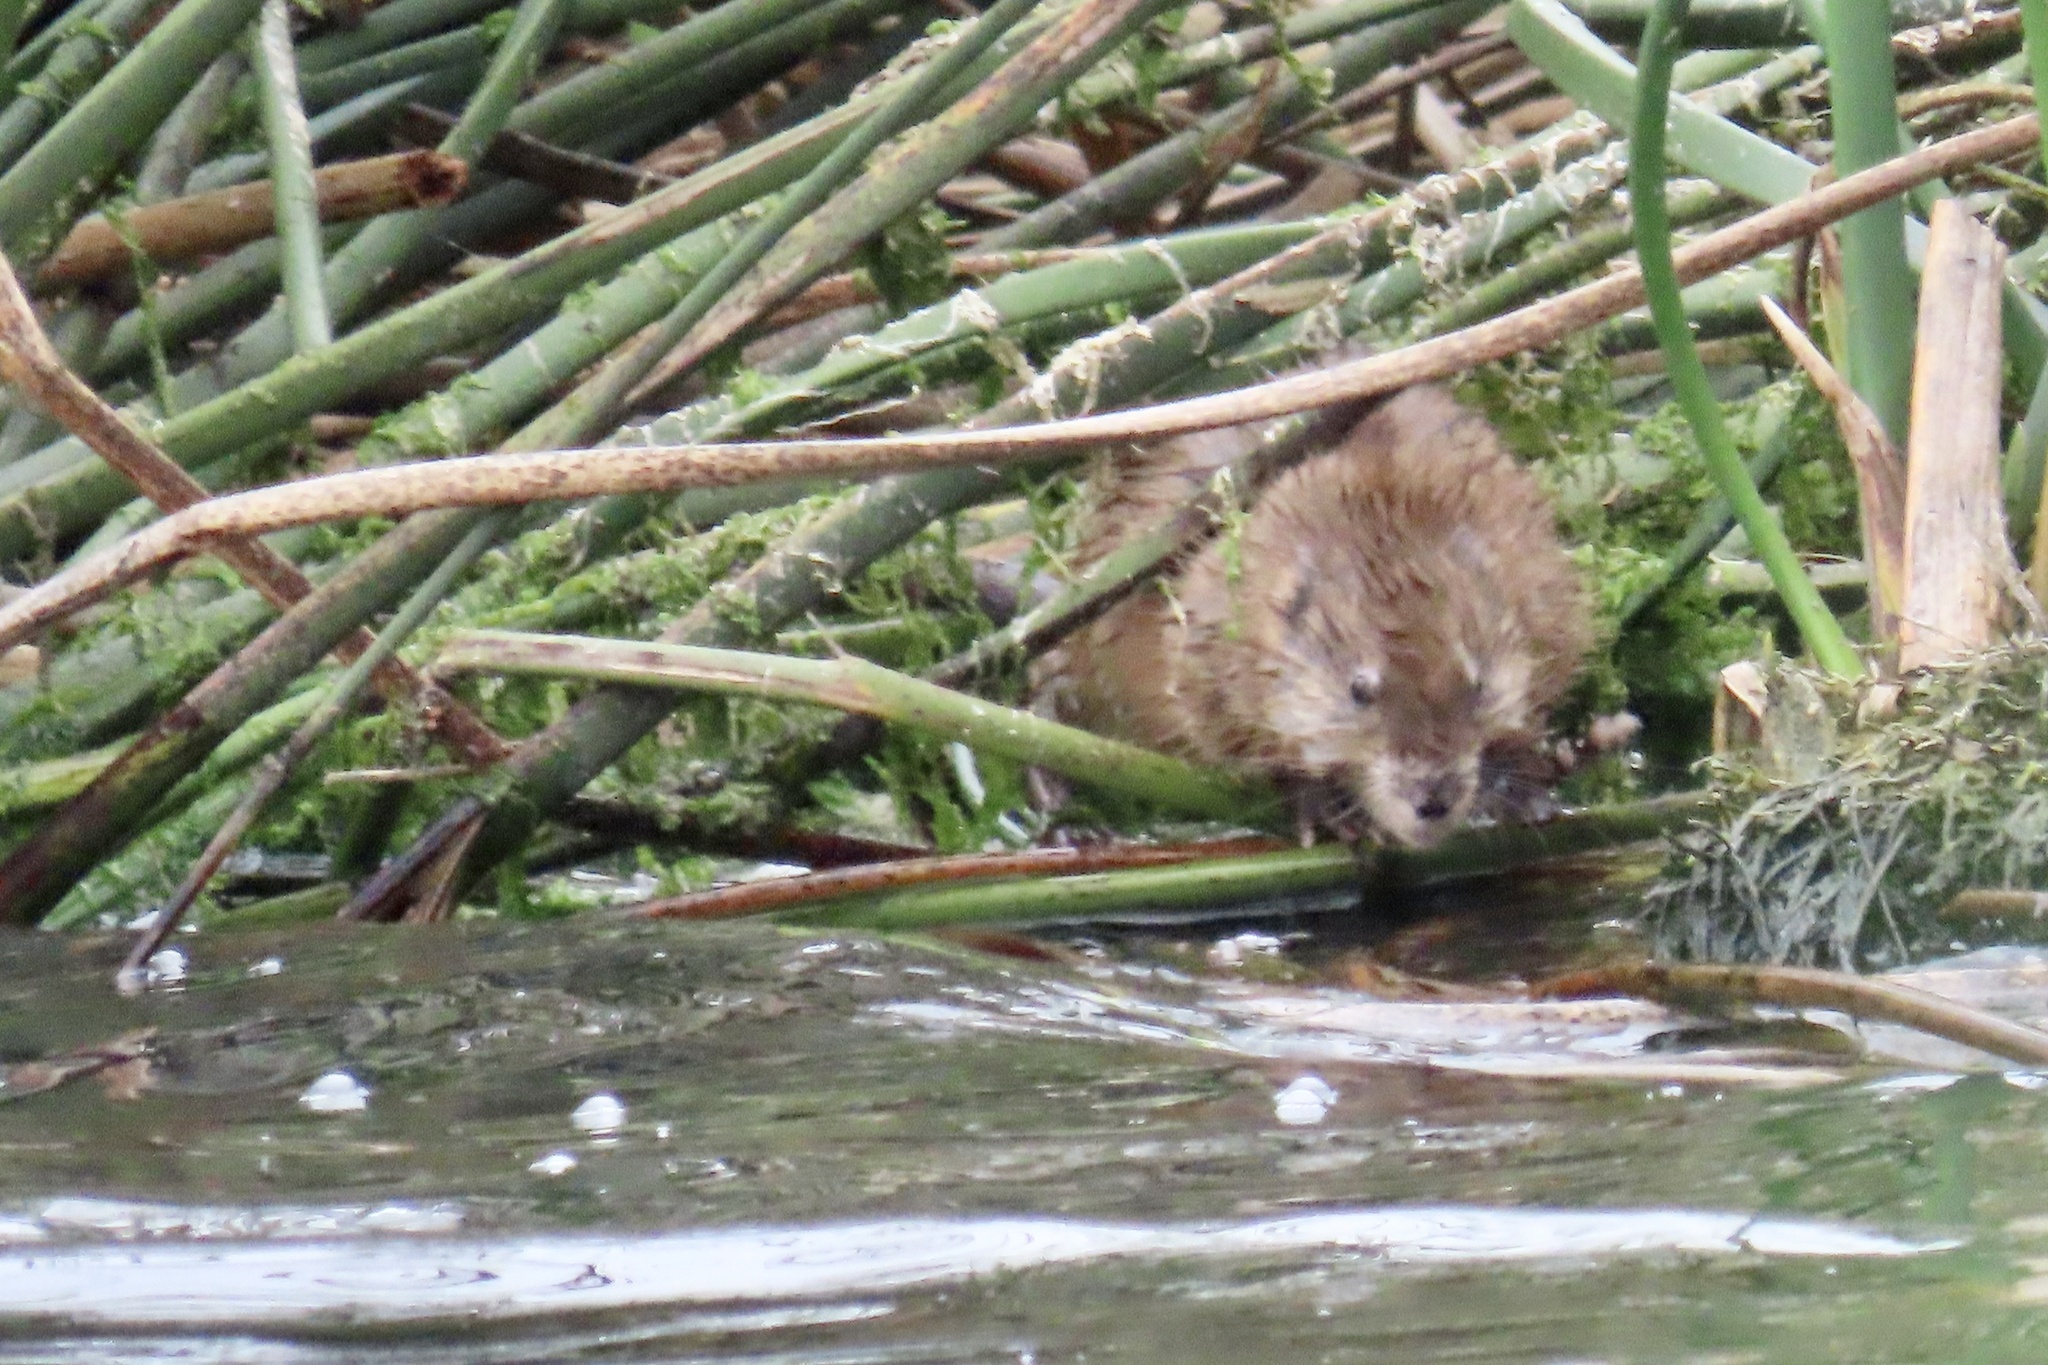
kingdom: Animalia
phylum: Chordata
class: Mammalia
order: Rodentia
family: Cricetidae
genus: Ondatra
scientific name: Ondatra zibethicus
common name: Muskrat
